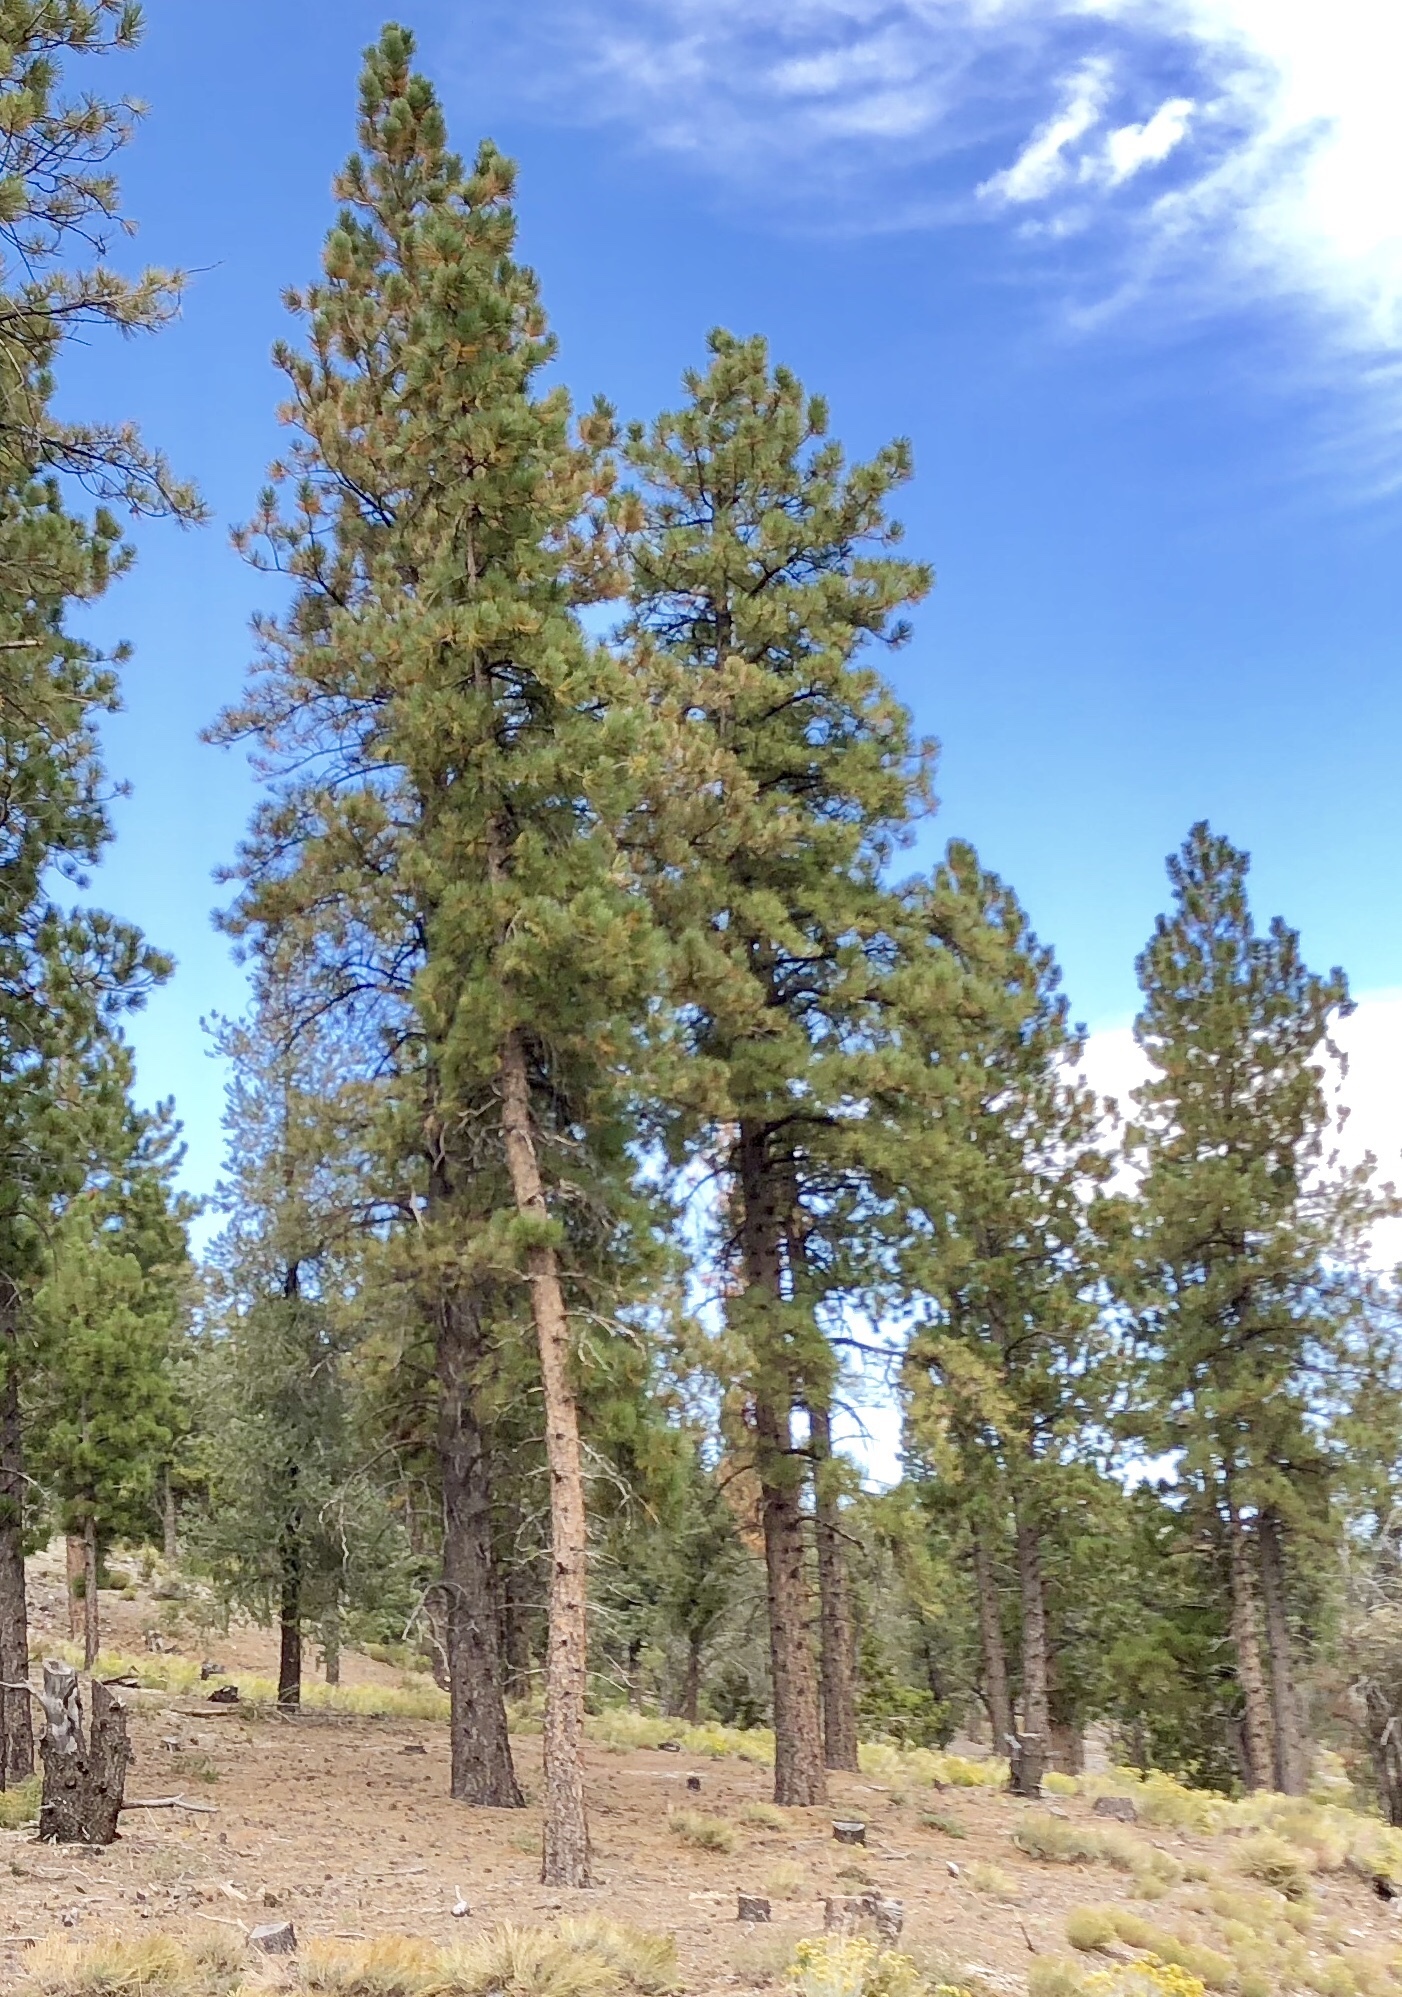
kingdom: Plantae
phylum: Tracheophyta
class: Pinopsida
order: Pinales
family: Pinaceae
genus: Pinus
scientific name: Pinus ponderosa
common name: Western yellow-pine
